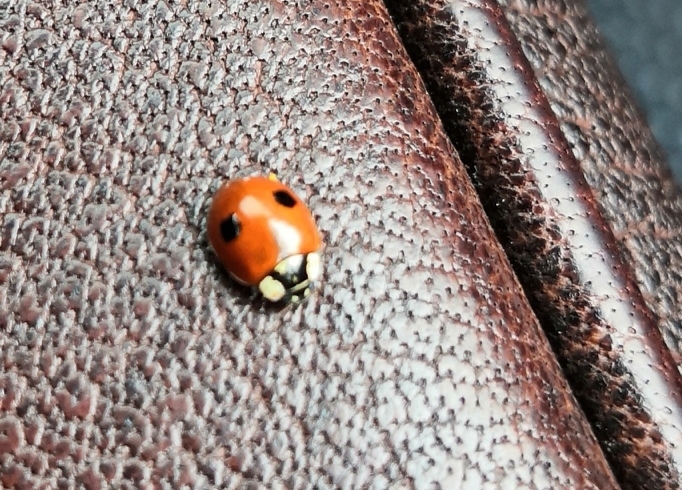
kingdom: Animalia
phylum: Arthropoda
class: Insecta
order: Coleoptera
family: Coccinellidae
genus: Adalia
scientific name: Adalia bipunctata
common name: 2-spot ladybird
